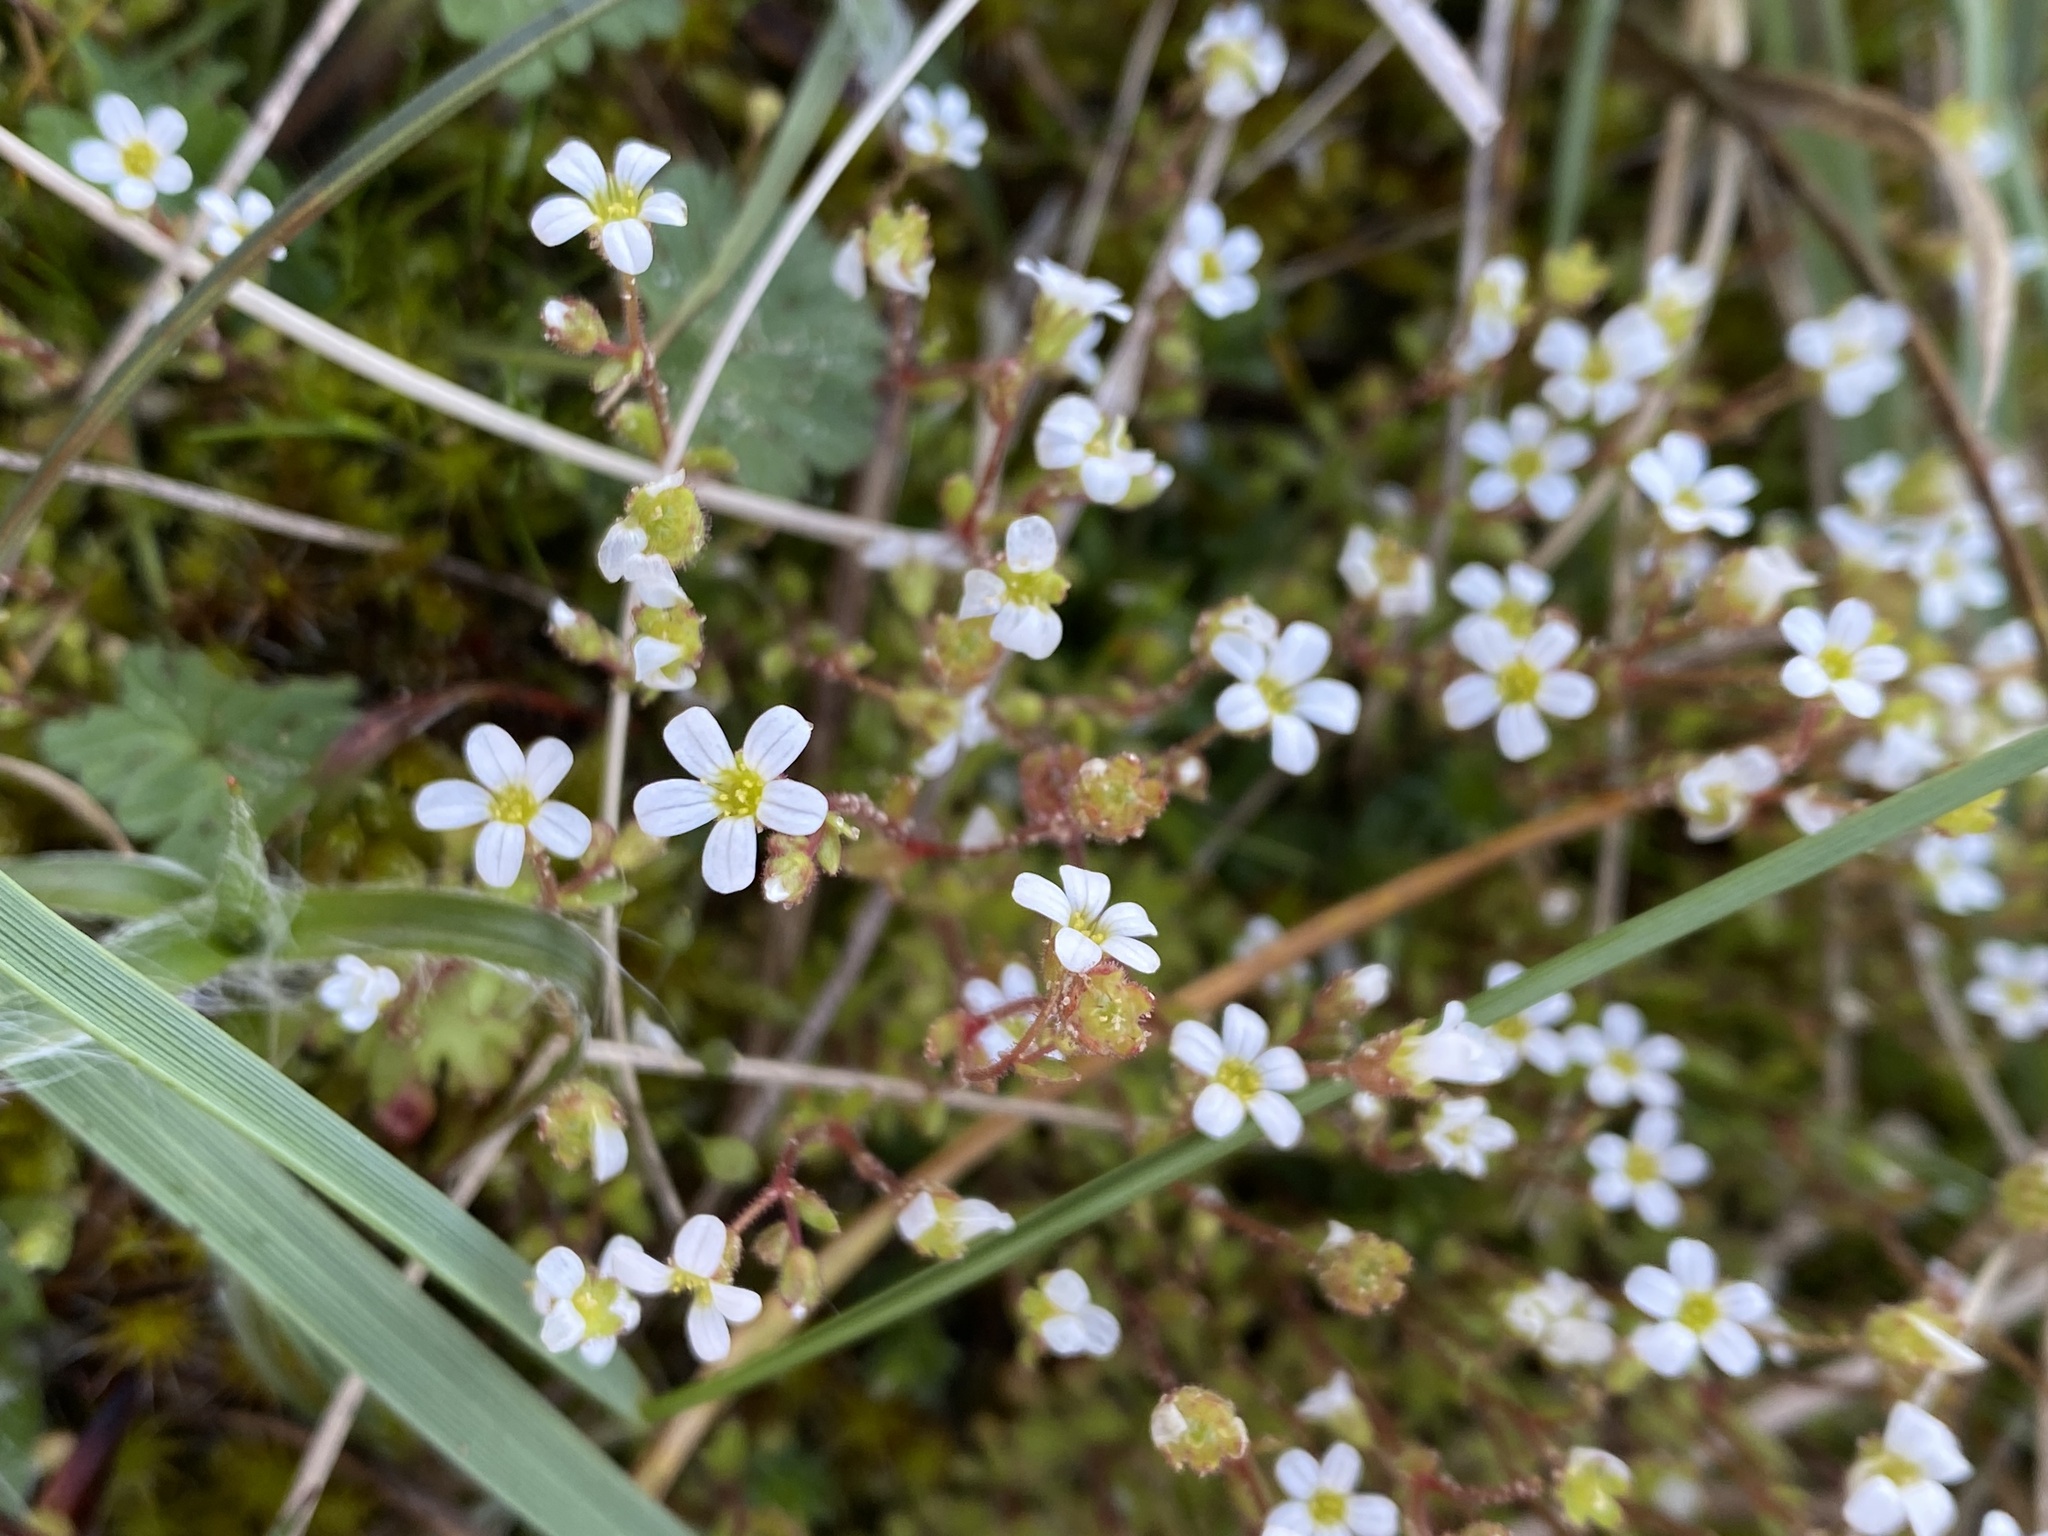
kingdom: Plantae
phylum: Tracheophyta
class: Magnoliopsida
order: Saxifragales
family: Saxifragaceae
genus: Saxifraga
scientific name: Saxifraga tridactylites
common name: Rue-leaved saxifrage
